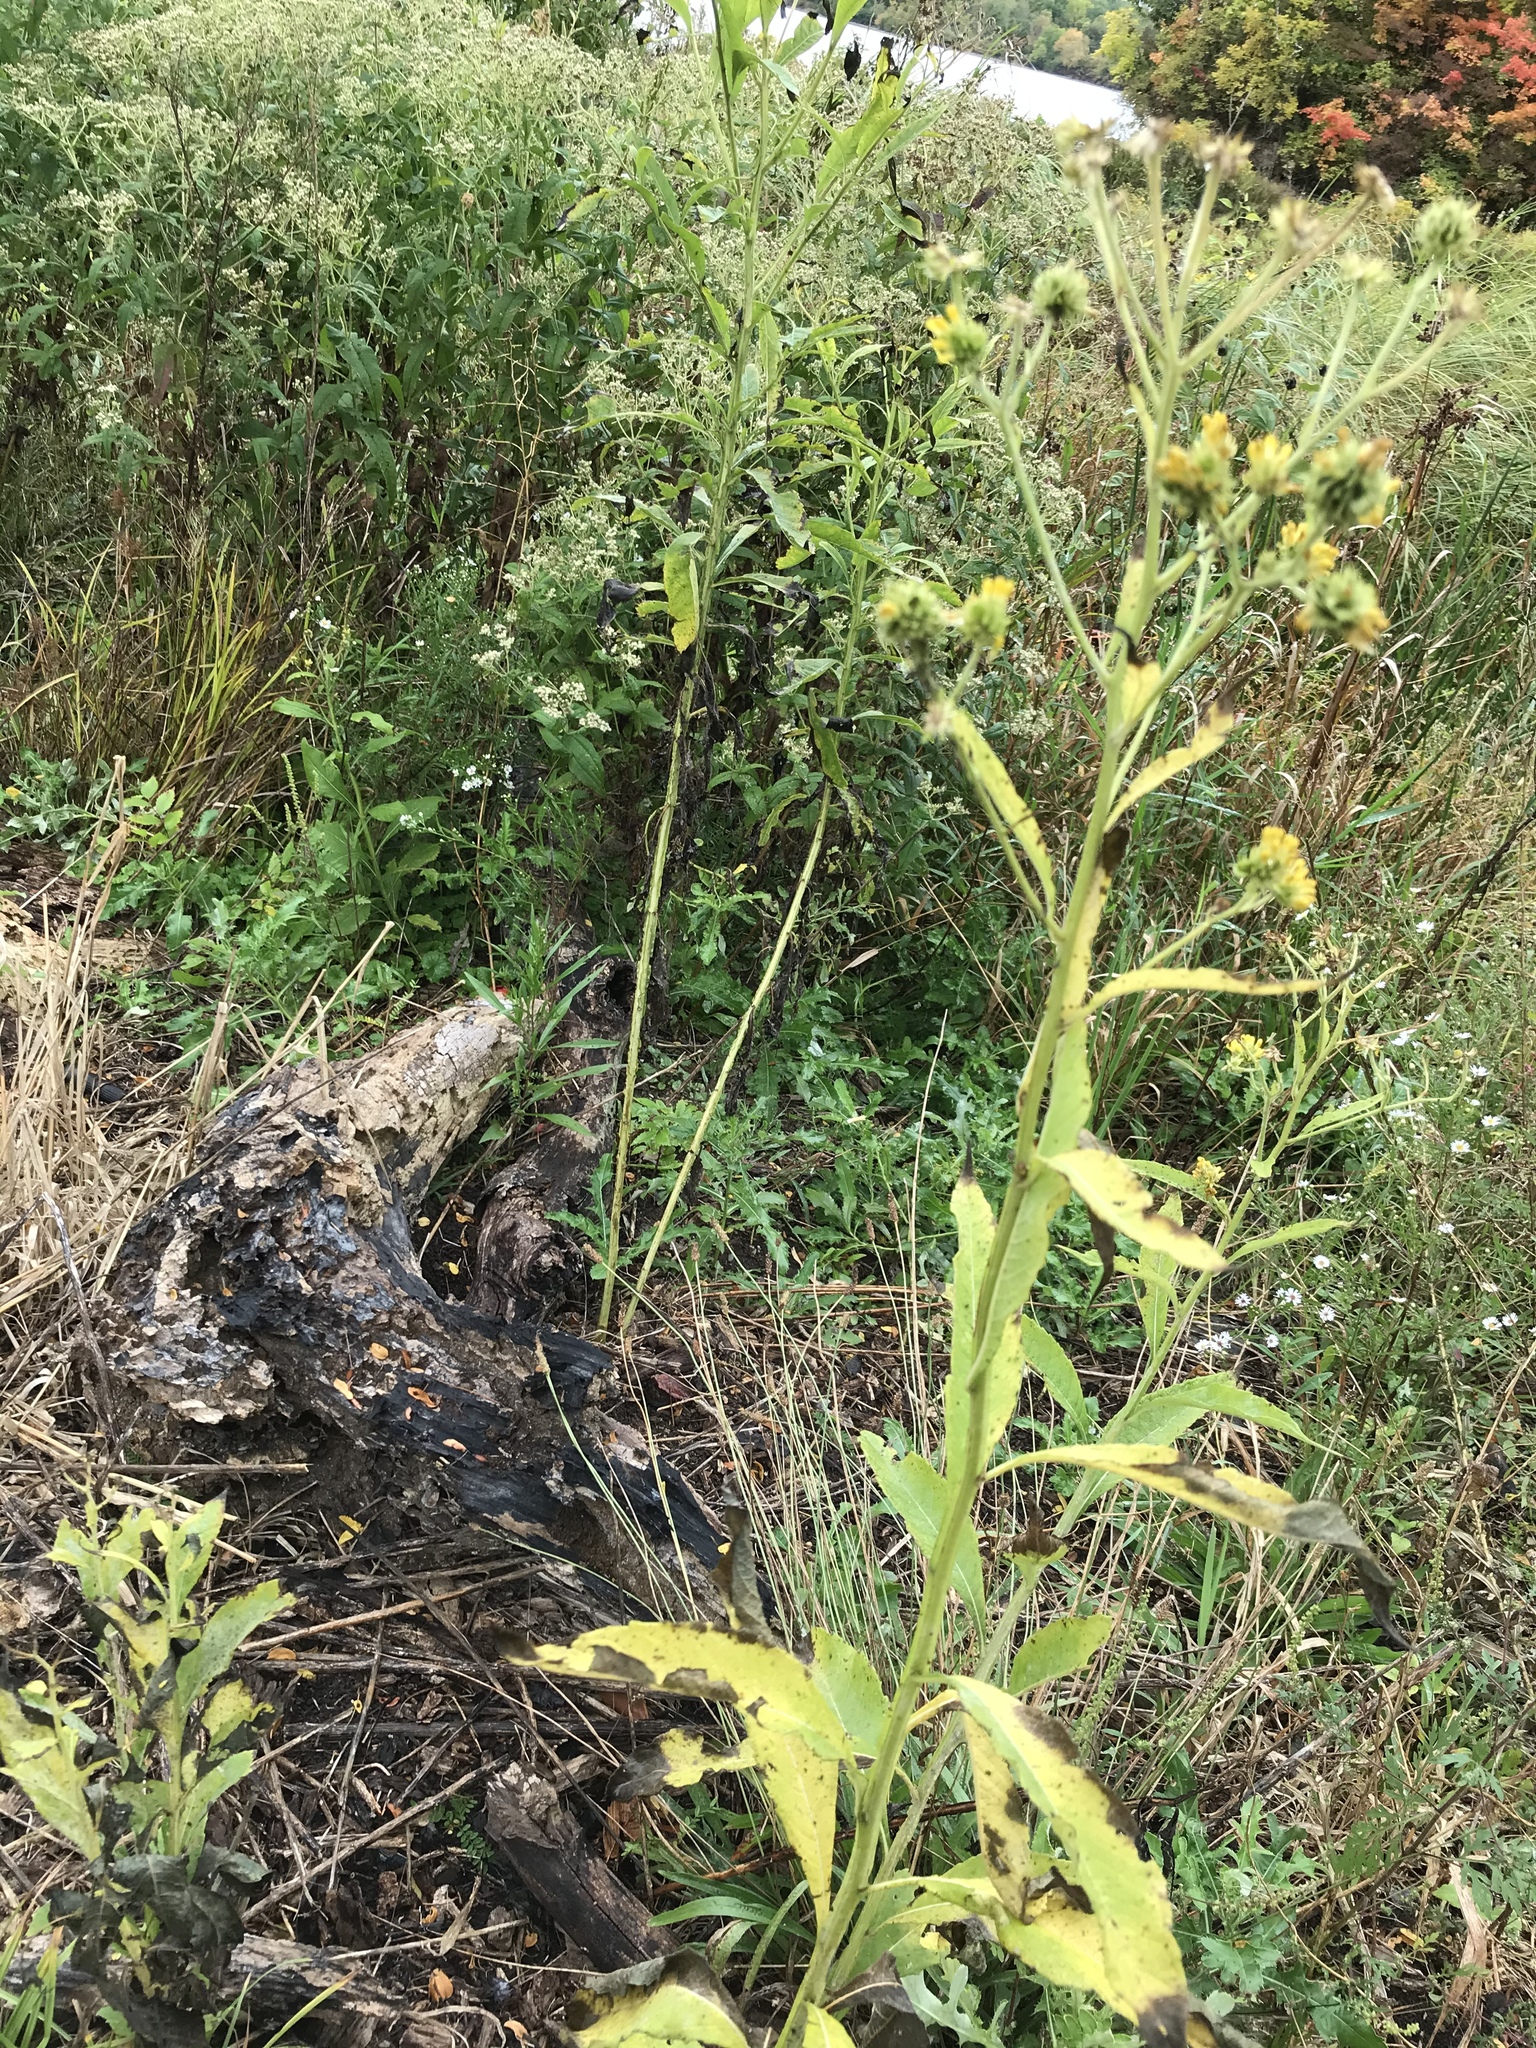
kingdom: Plantae
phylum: Tracheophyta
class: Magnoliopsida
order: Asterales
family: Asteraceae
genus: Verbesina
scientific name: Verbesina alternifolia
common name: Wingstem
